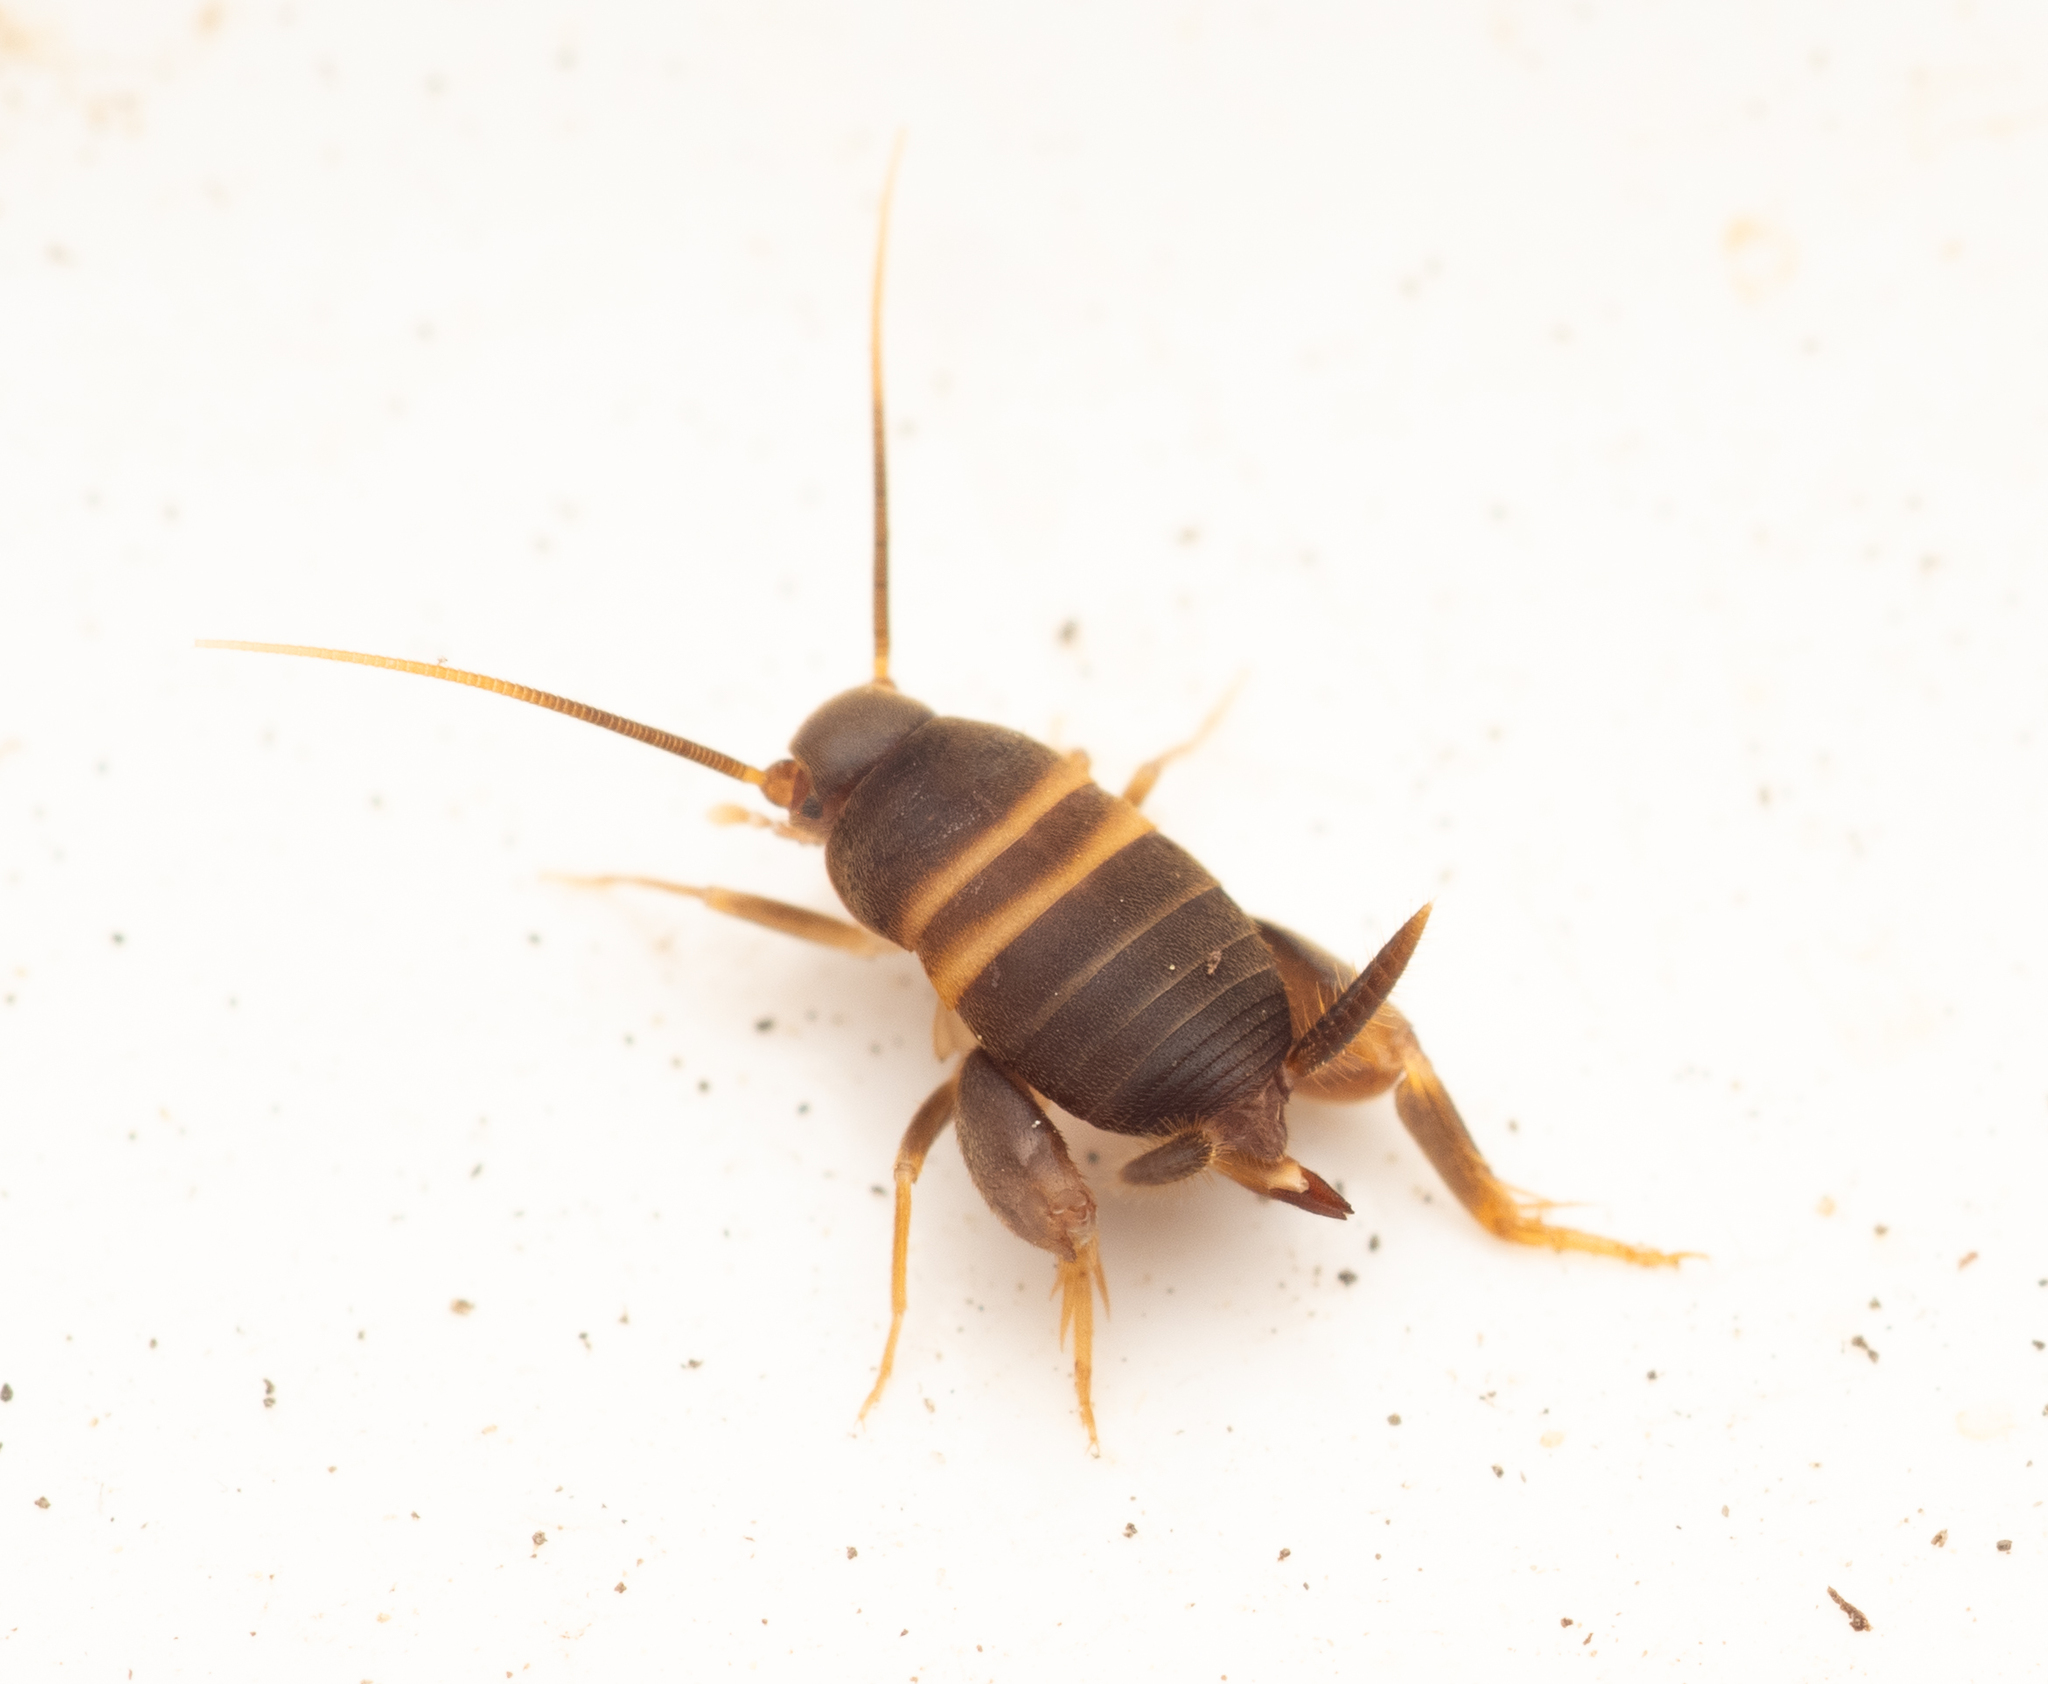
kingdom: Animalia
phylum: Arthropoda
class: Insecta
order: Orthoptera
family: Myrmecophilidae
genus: Myrmecophilus
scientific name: Myrmecophilus acervorum
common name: Ants-nest cricket
